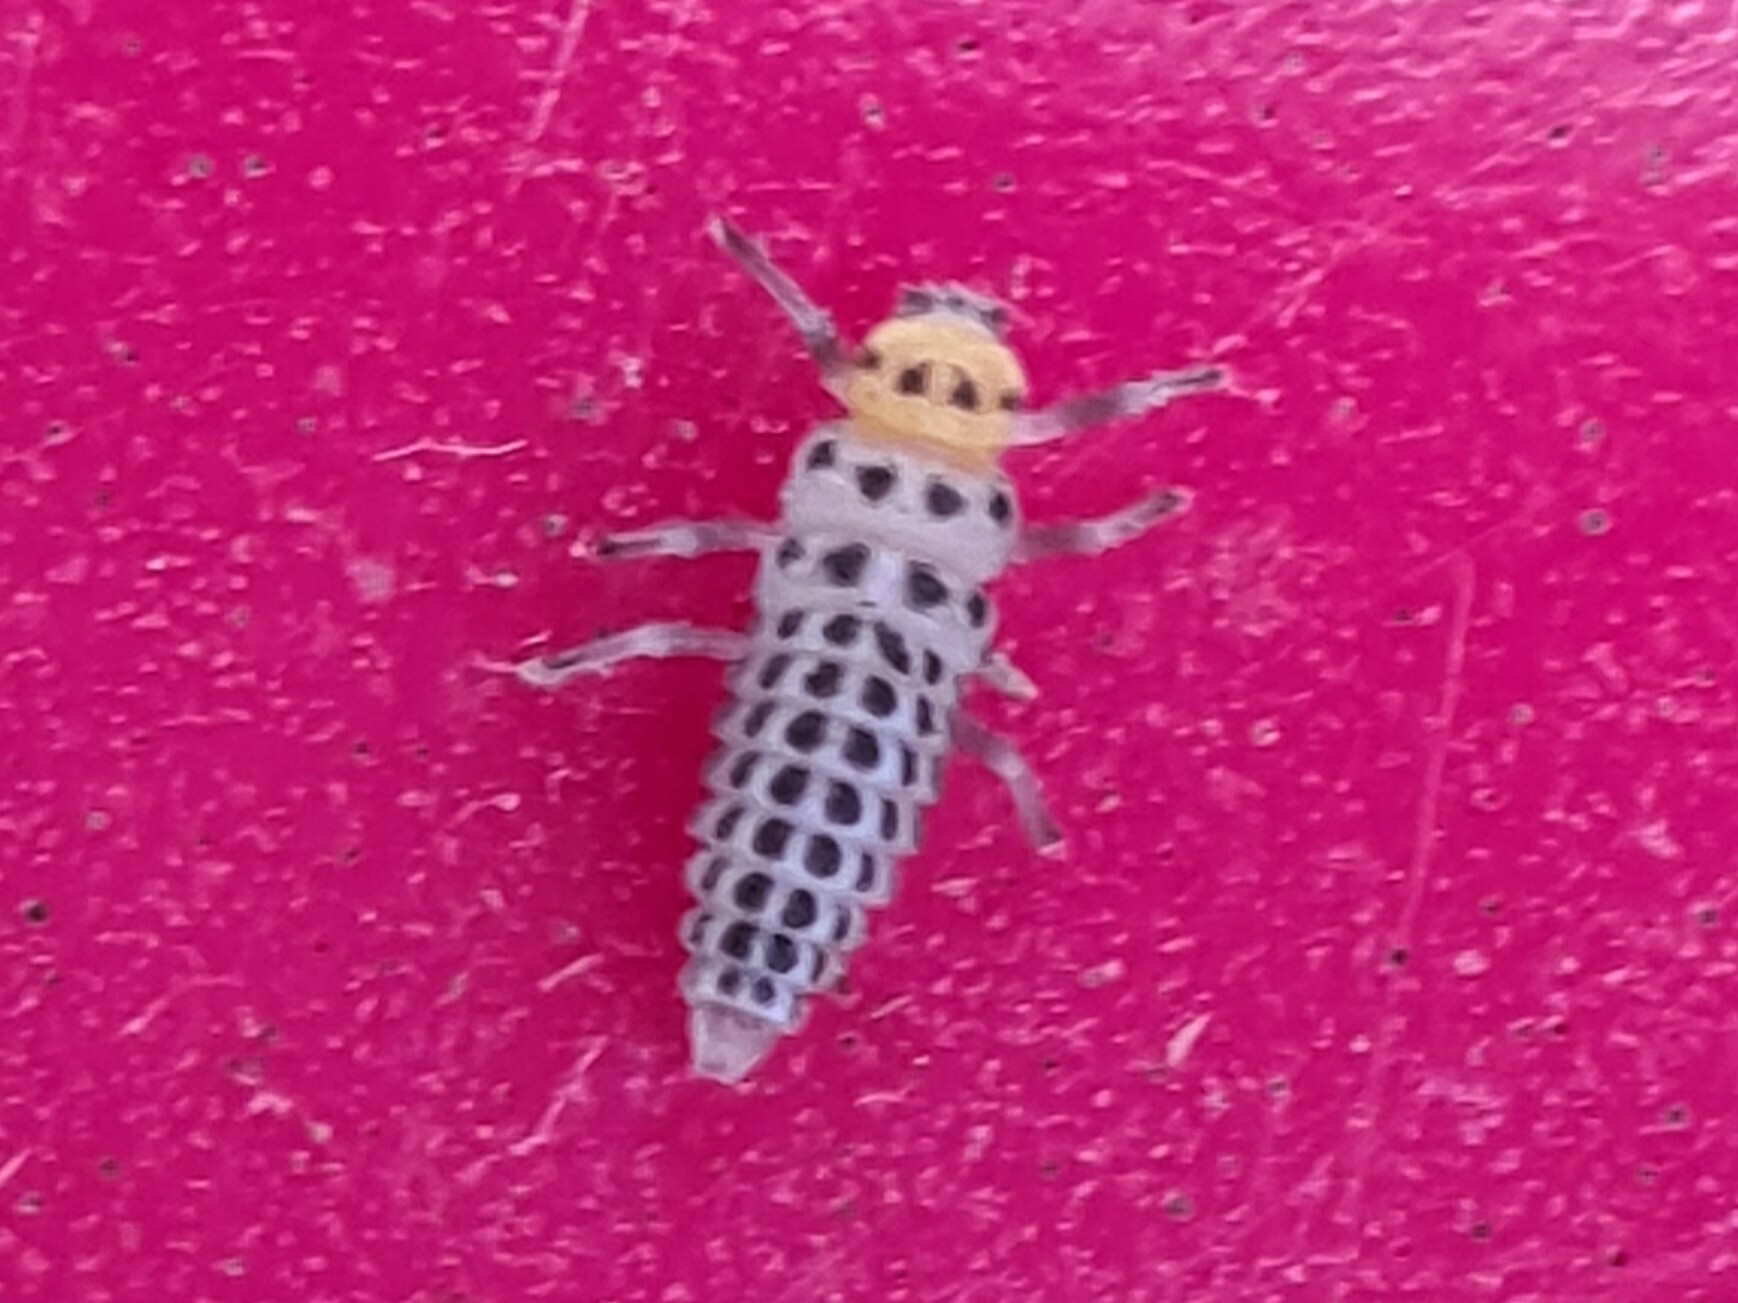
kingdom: Animalia
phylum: Arthropoda
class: Insecta
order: Coleoptera
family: Coccinellidae
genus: Illeis
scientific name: Illeis galbula
